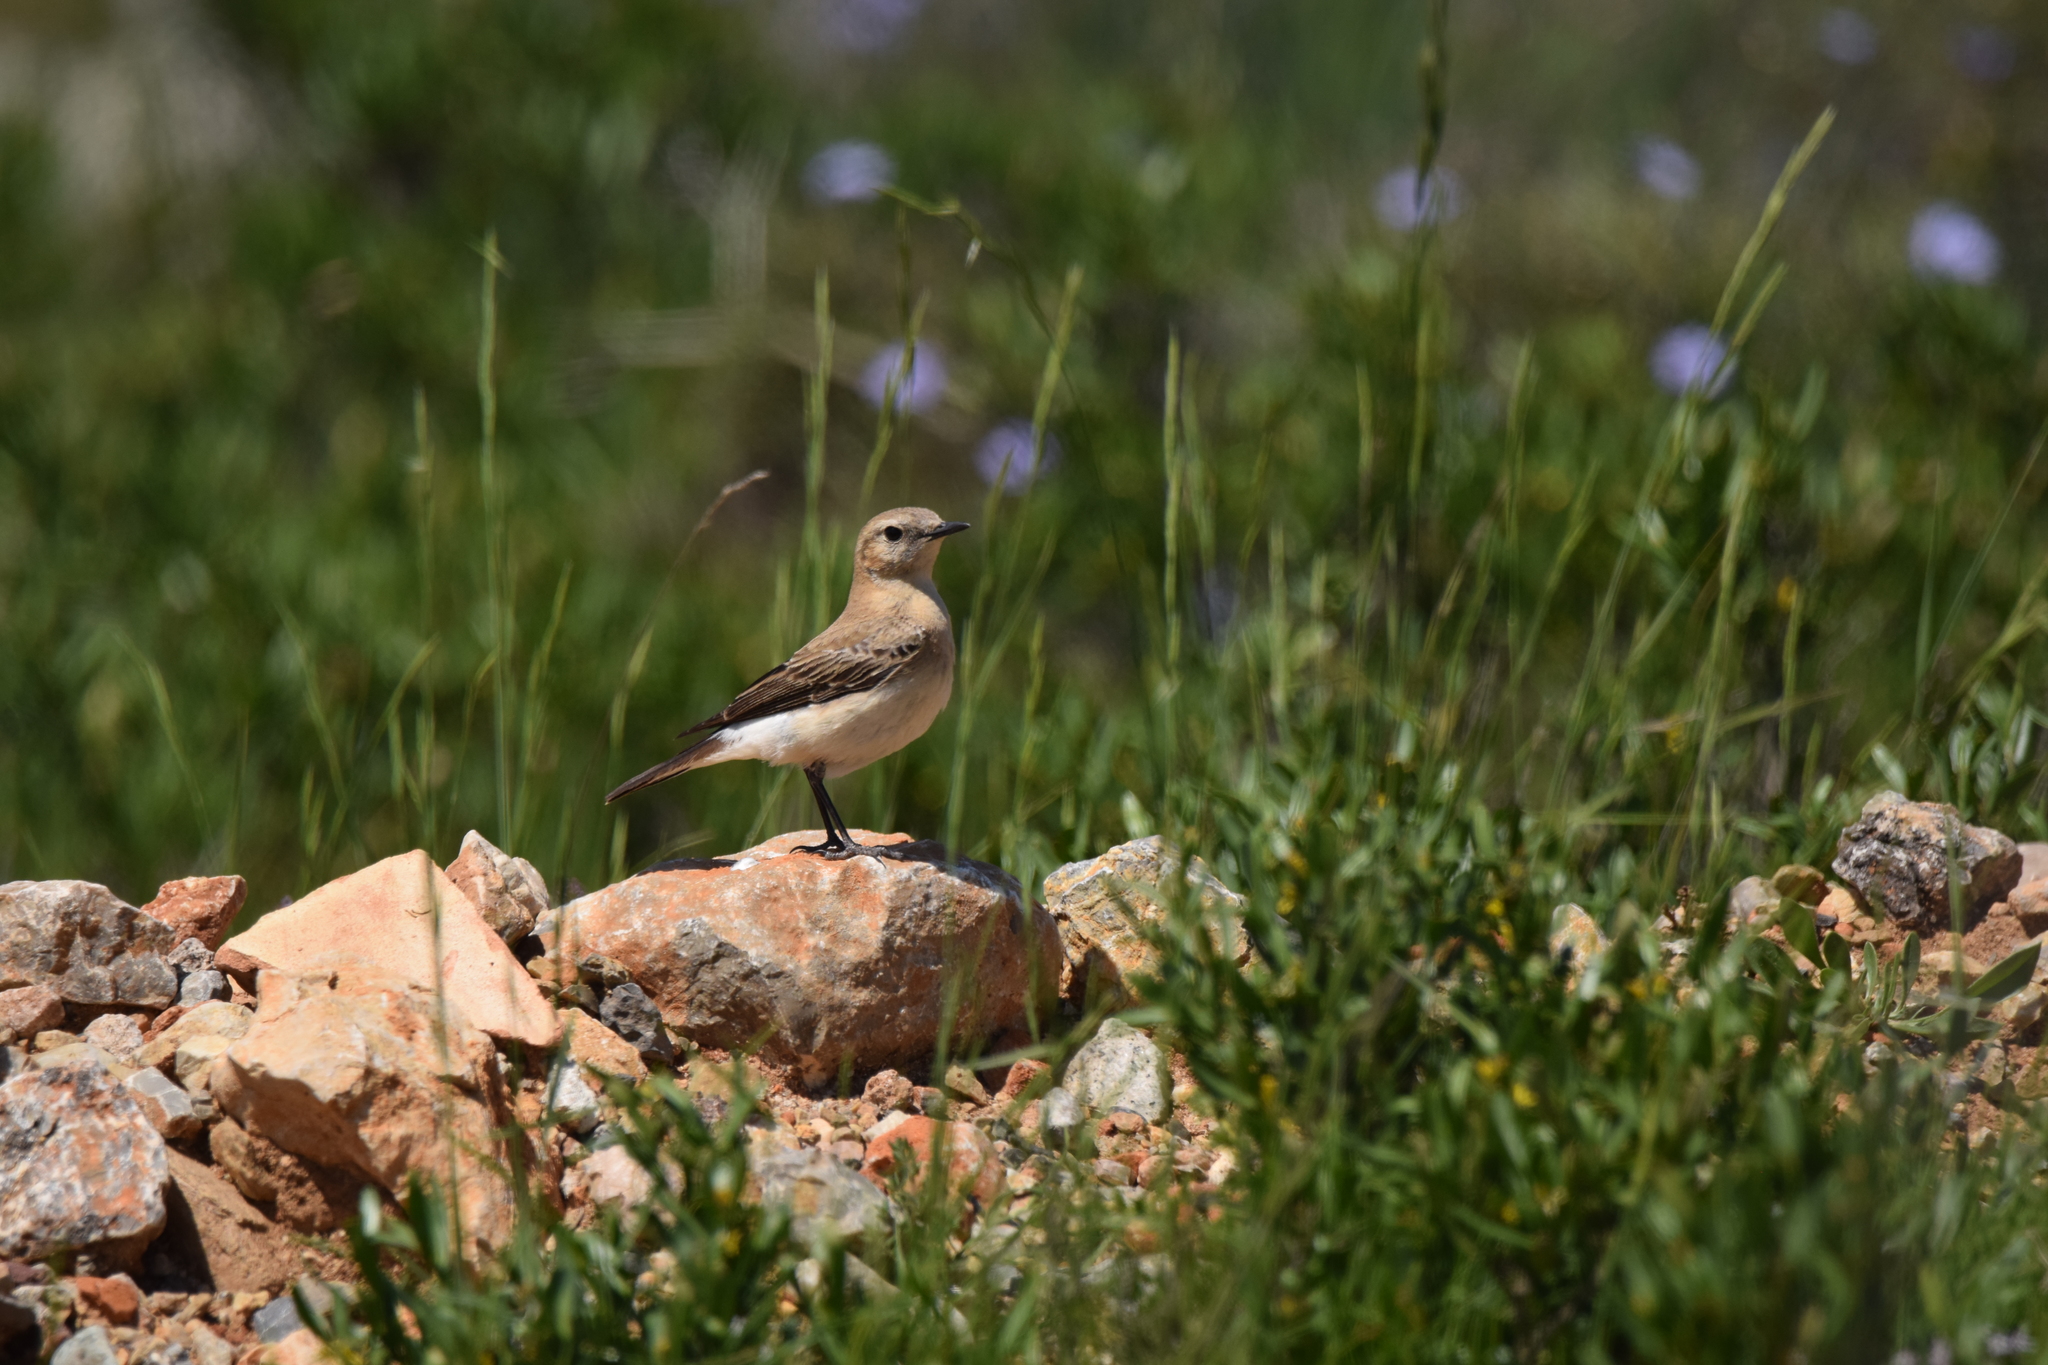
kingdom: Animalia
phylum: Chordata
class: Aves
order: Passeriformes
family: Muscicapidae
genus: Oenanthe
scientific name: Oenanthe hispanica
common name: Black-eared wheatear
